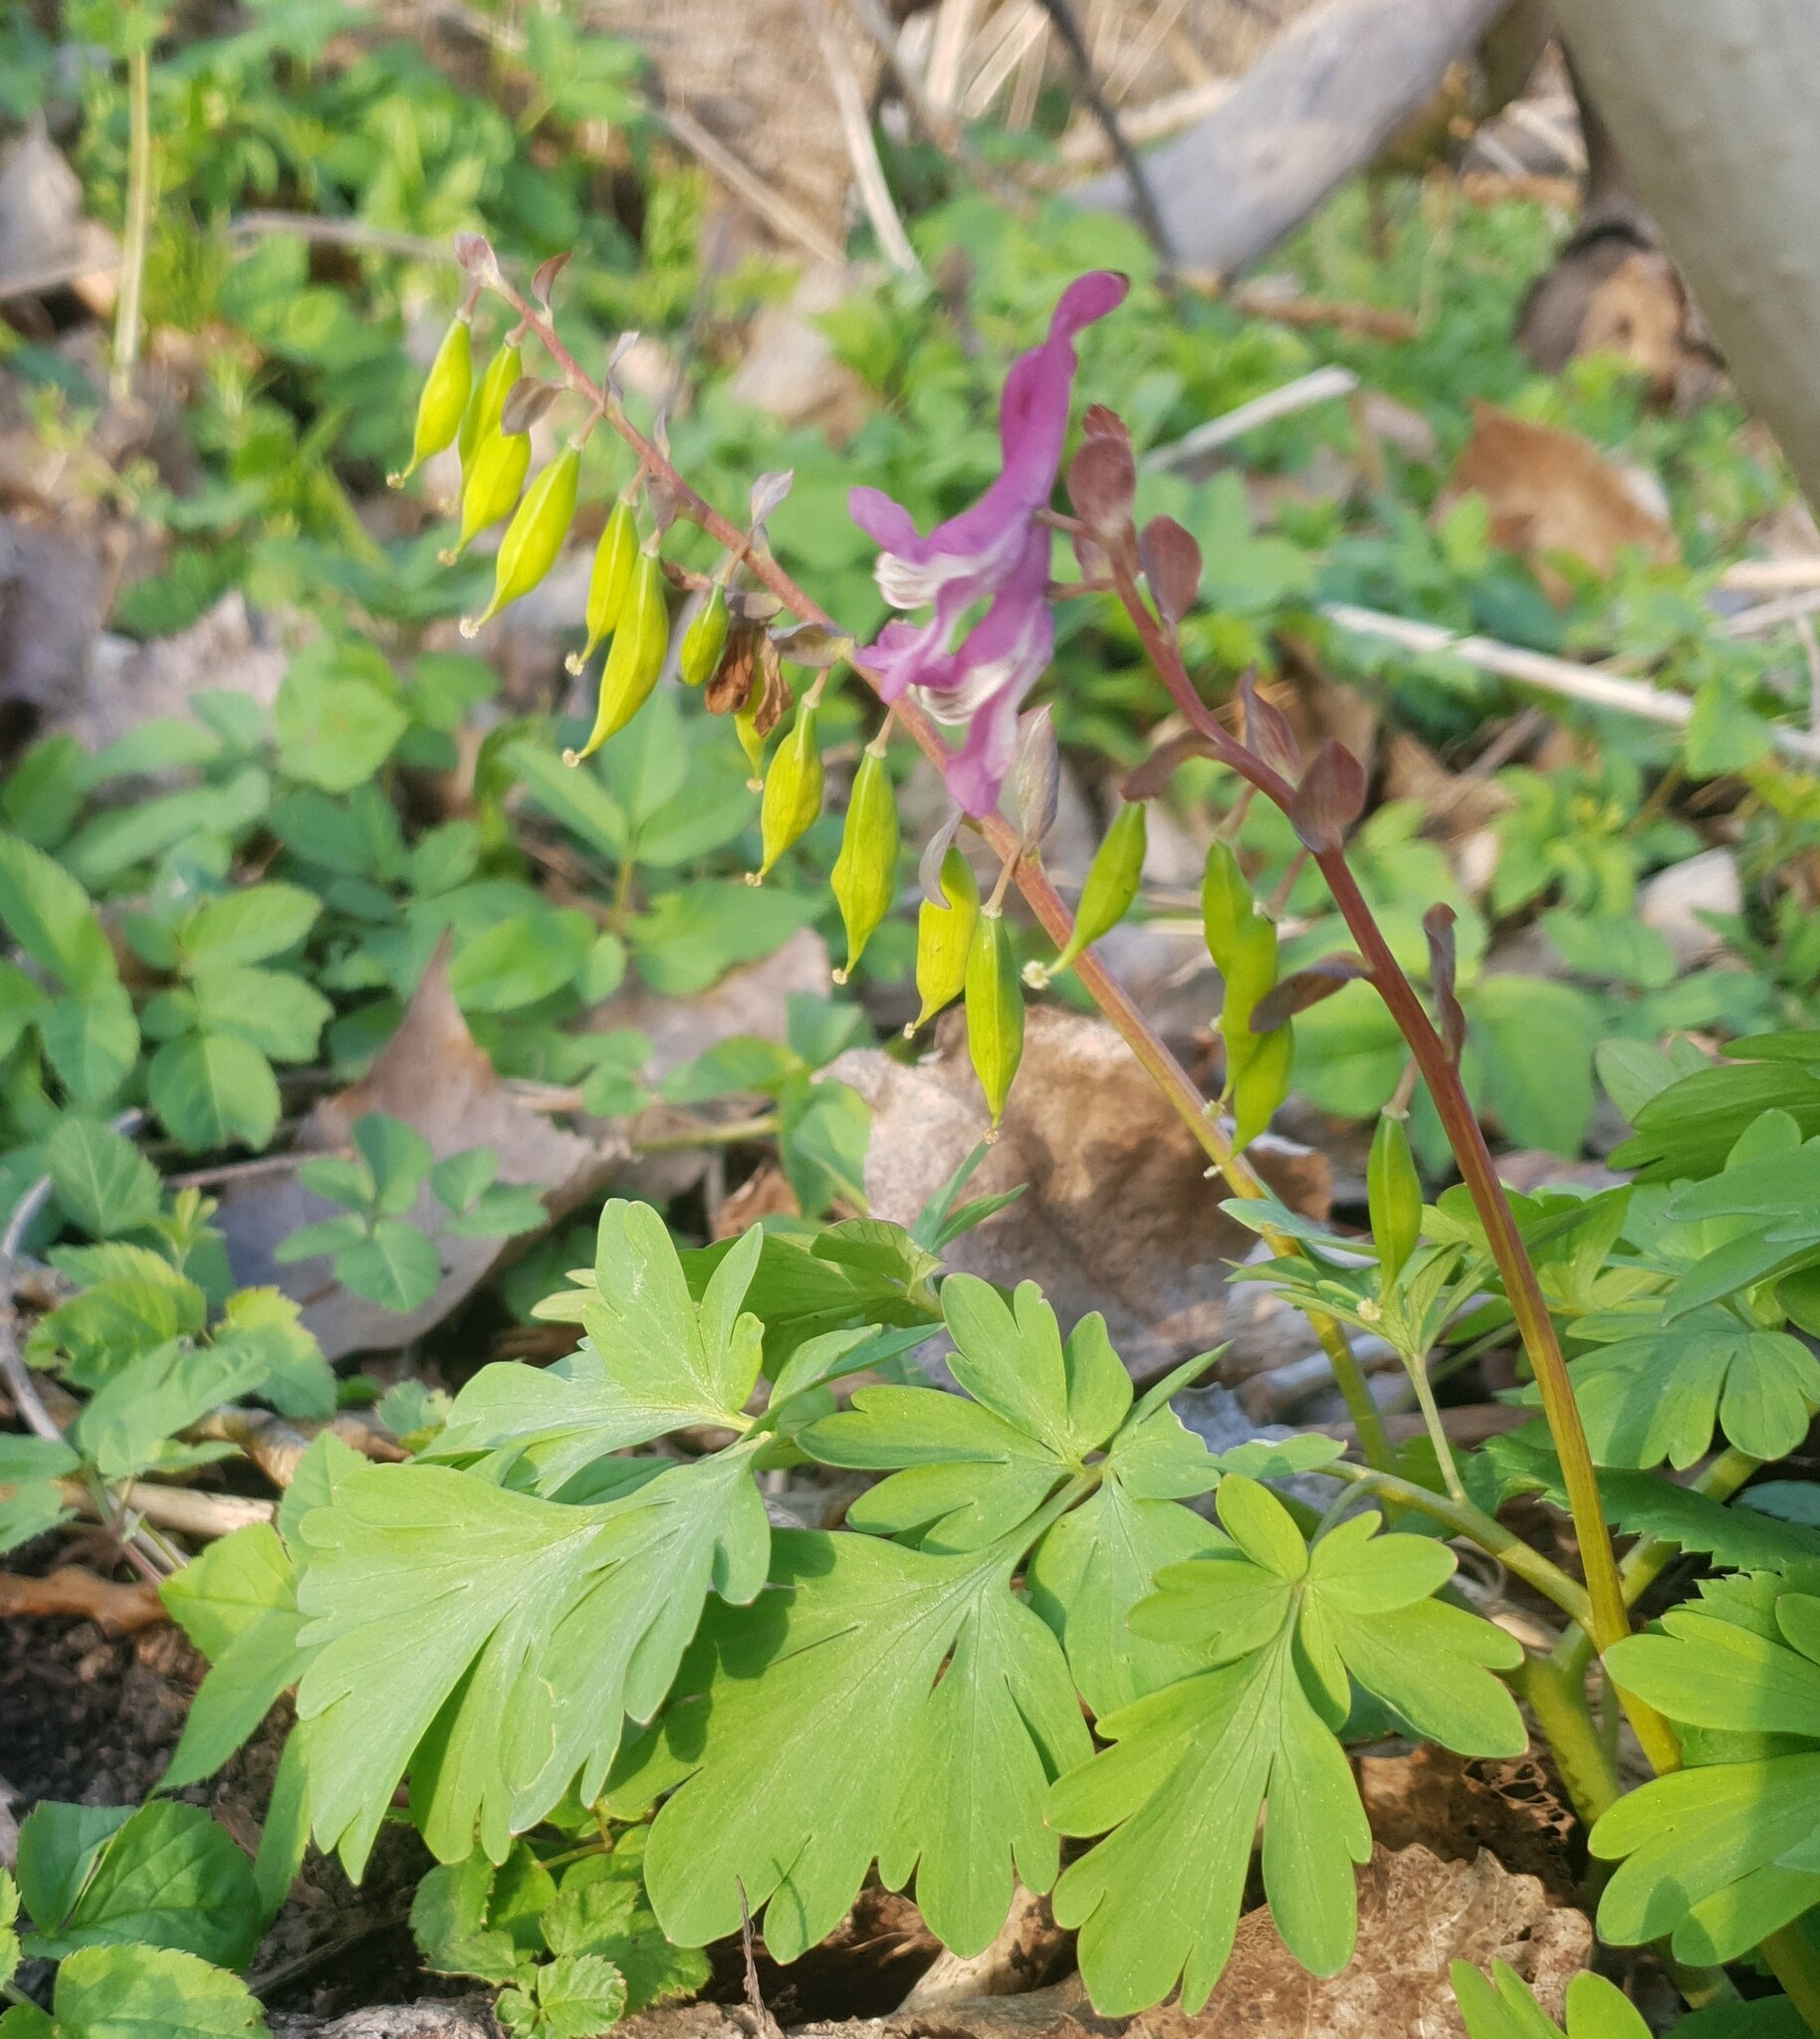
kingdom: Plantae
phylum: Tracheophyta
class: Magnoliopsida
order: Ranunculales
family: Papaveraceae
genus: Corydalis
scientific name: Corydalis cava
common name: Hollowroot
